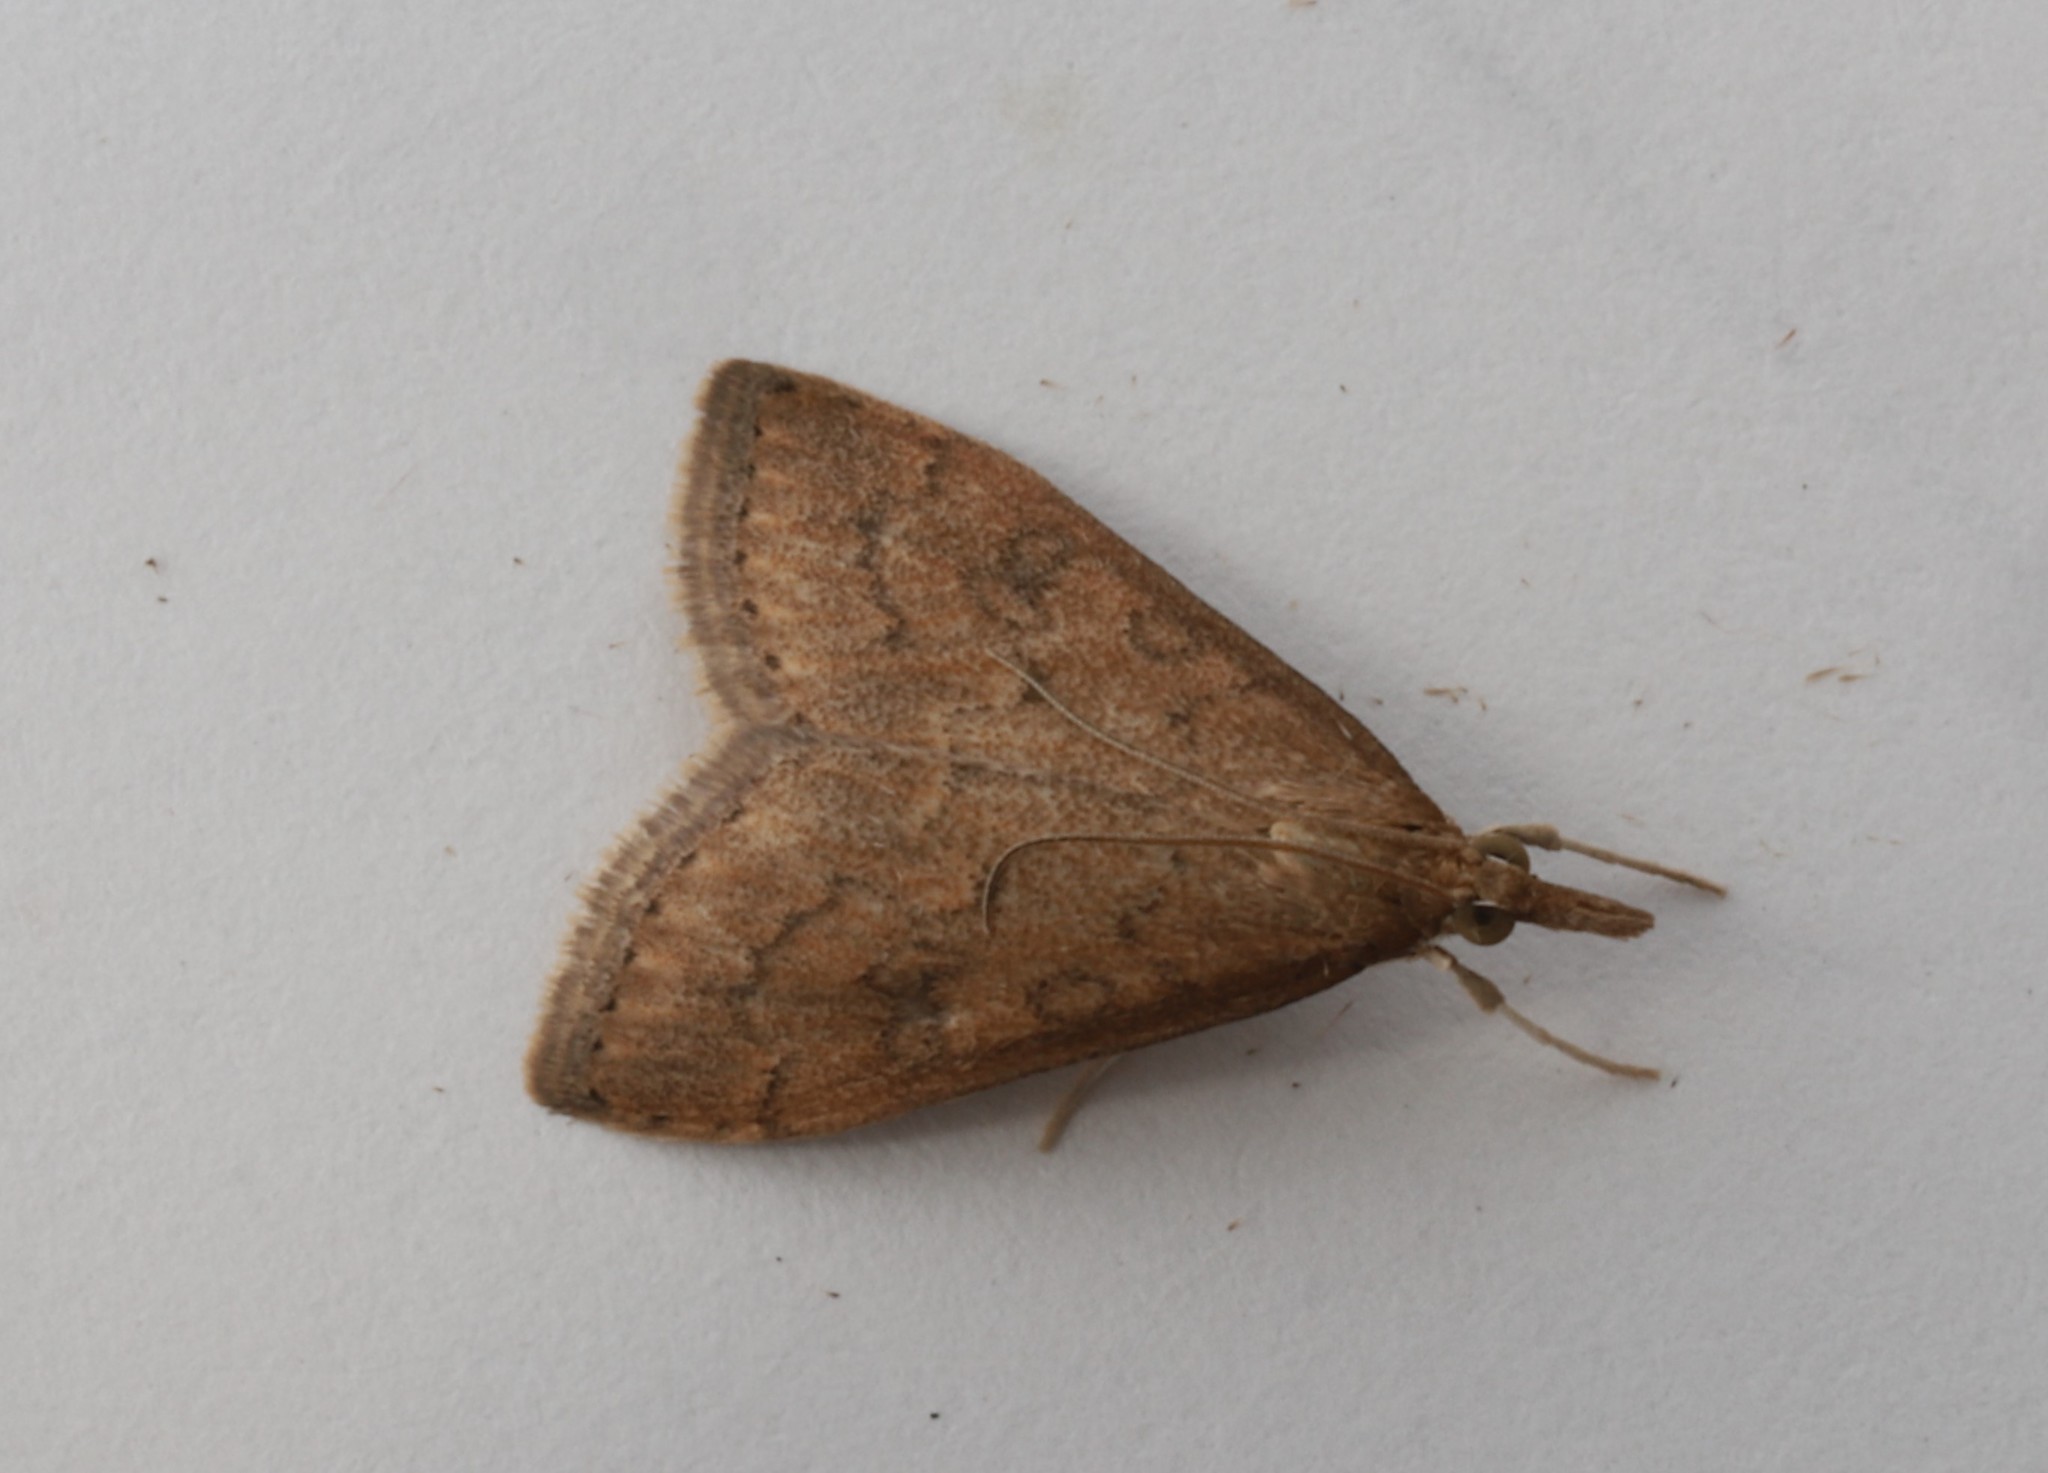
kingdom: Animalia
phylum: Arthropoda
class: Insecta
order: Lepidoptera
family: Crambidae
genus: Udea
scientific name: Udea rubigalis
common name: Celery leaftier moth
